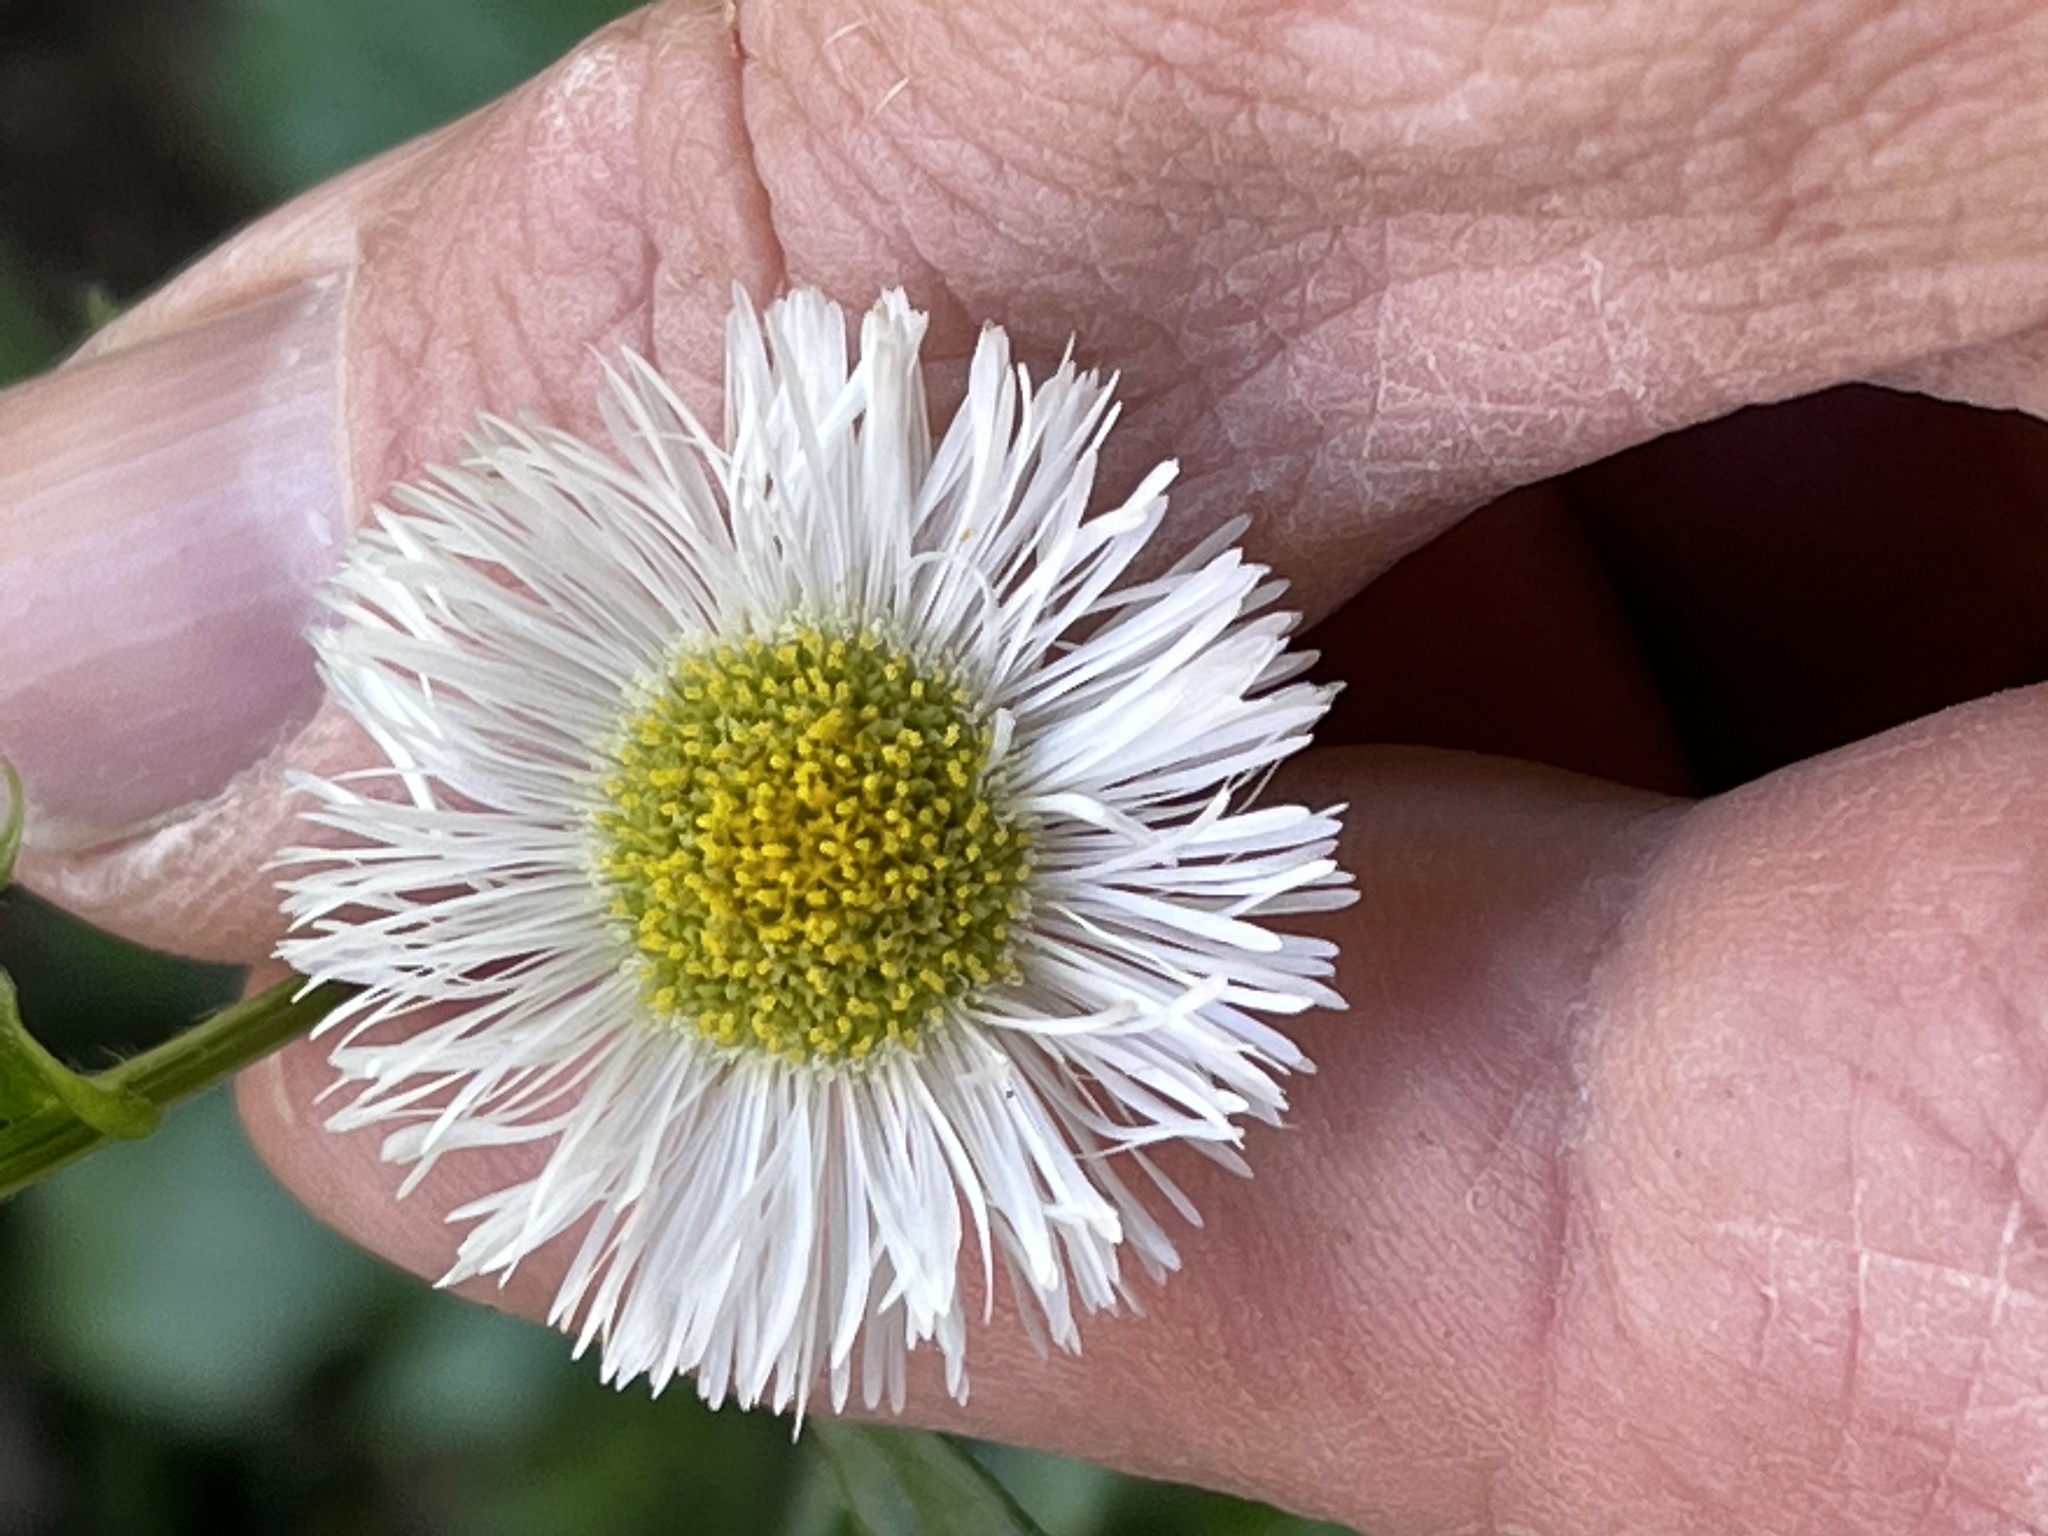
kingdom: Plantae
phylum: Tracheophyta
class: Magnoliopsida
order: Asterales
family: Asteraceae
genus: Erigeron
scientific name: Erigeron philadelphicus
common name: Robin's-plantain
